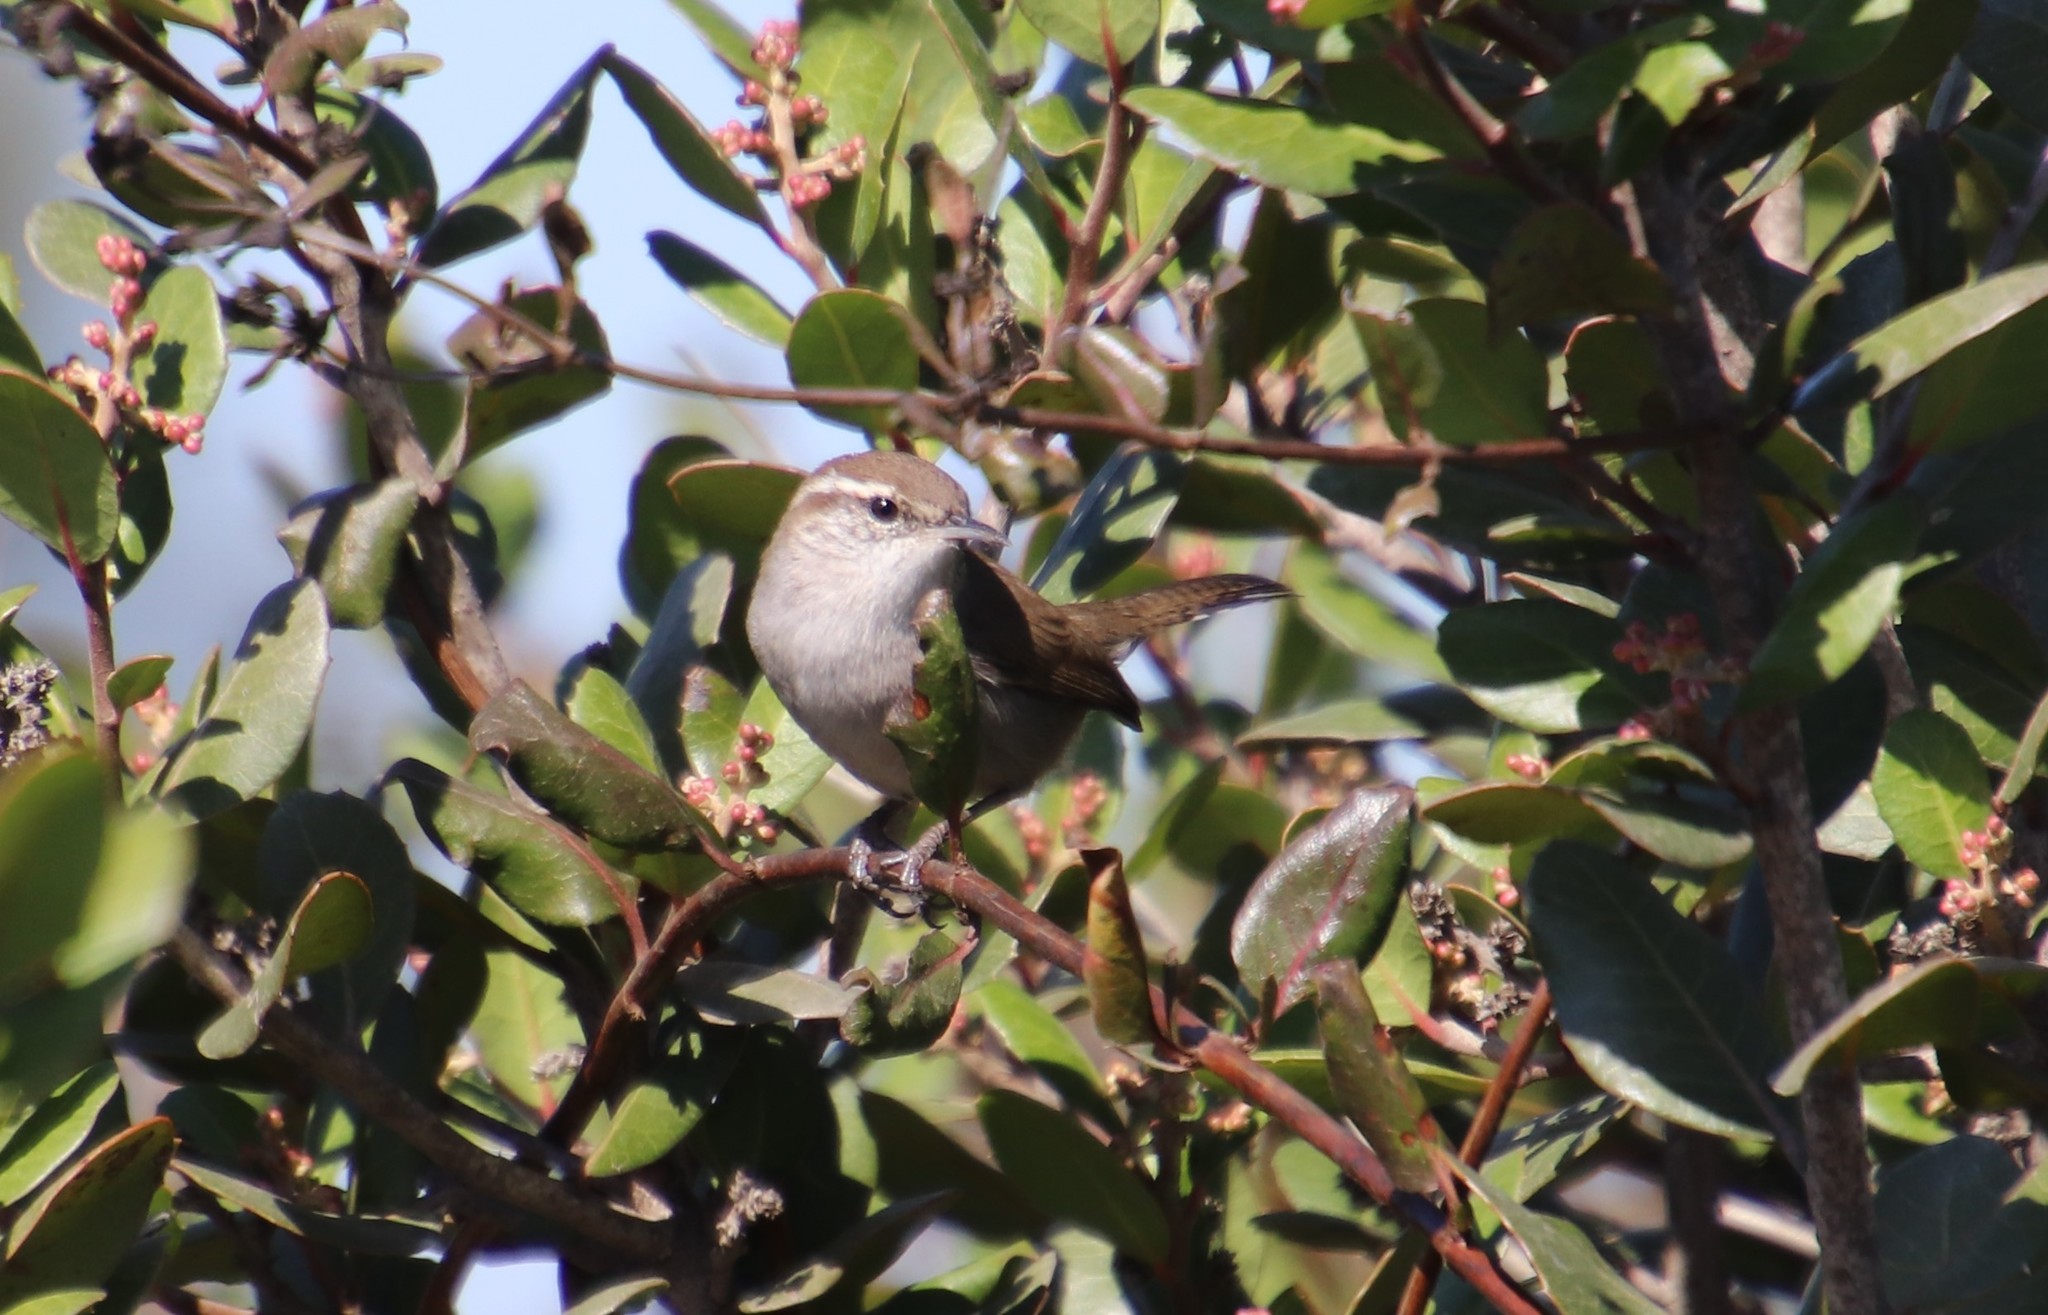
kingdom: Animalia
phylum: Chordata
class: Aves
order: Passeriformes
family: Troglodytidae
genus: Thryomanes
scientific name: Thryomanes bewickii
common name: Bewick's wren
